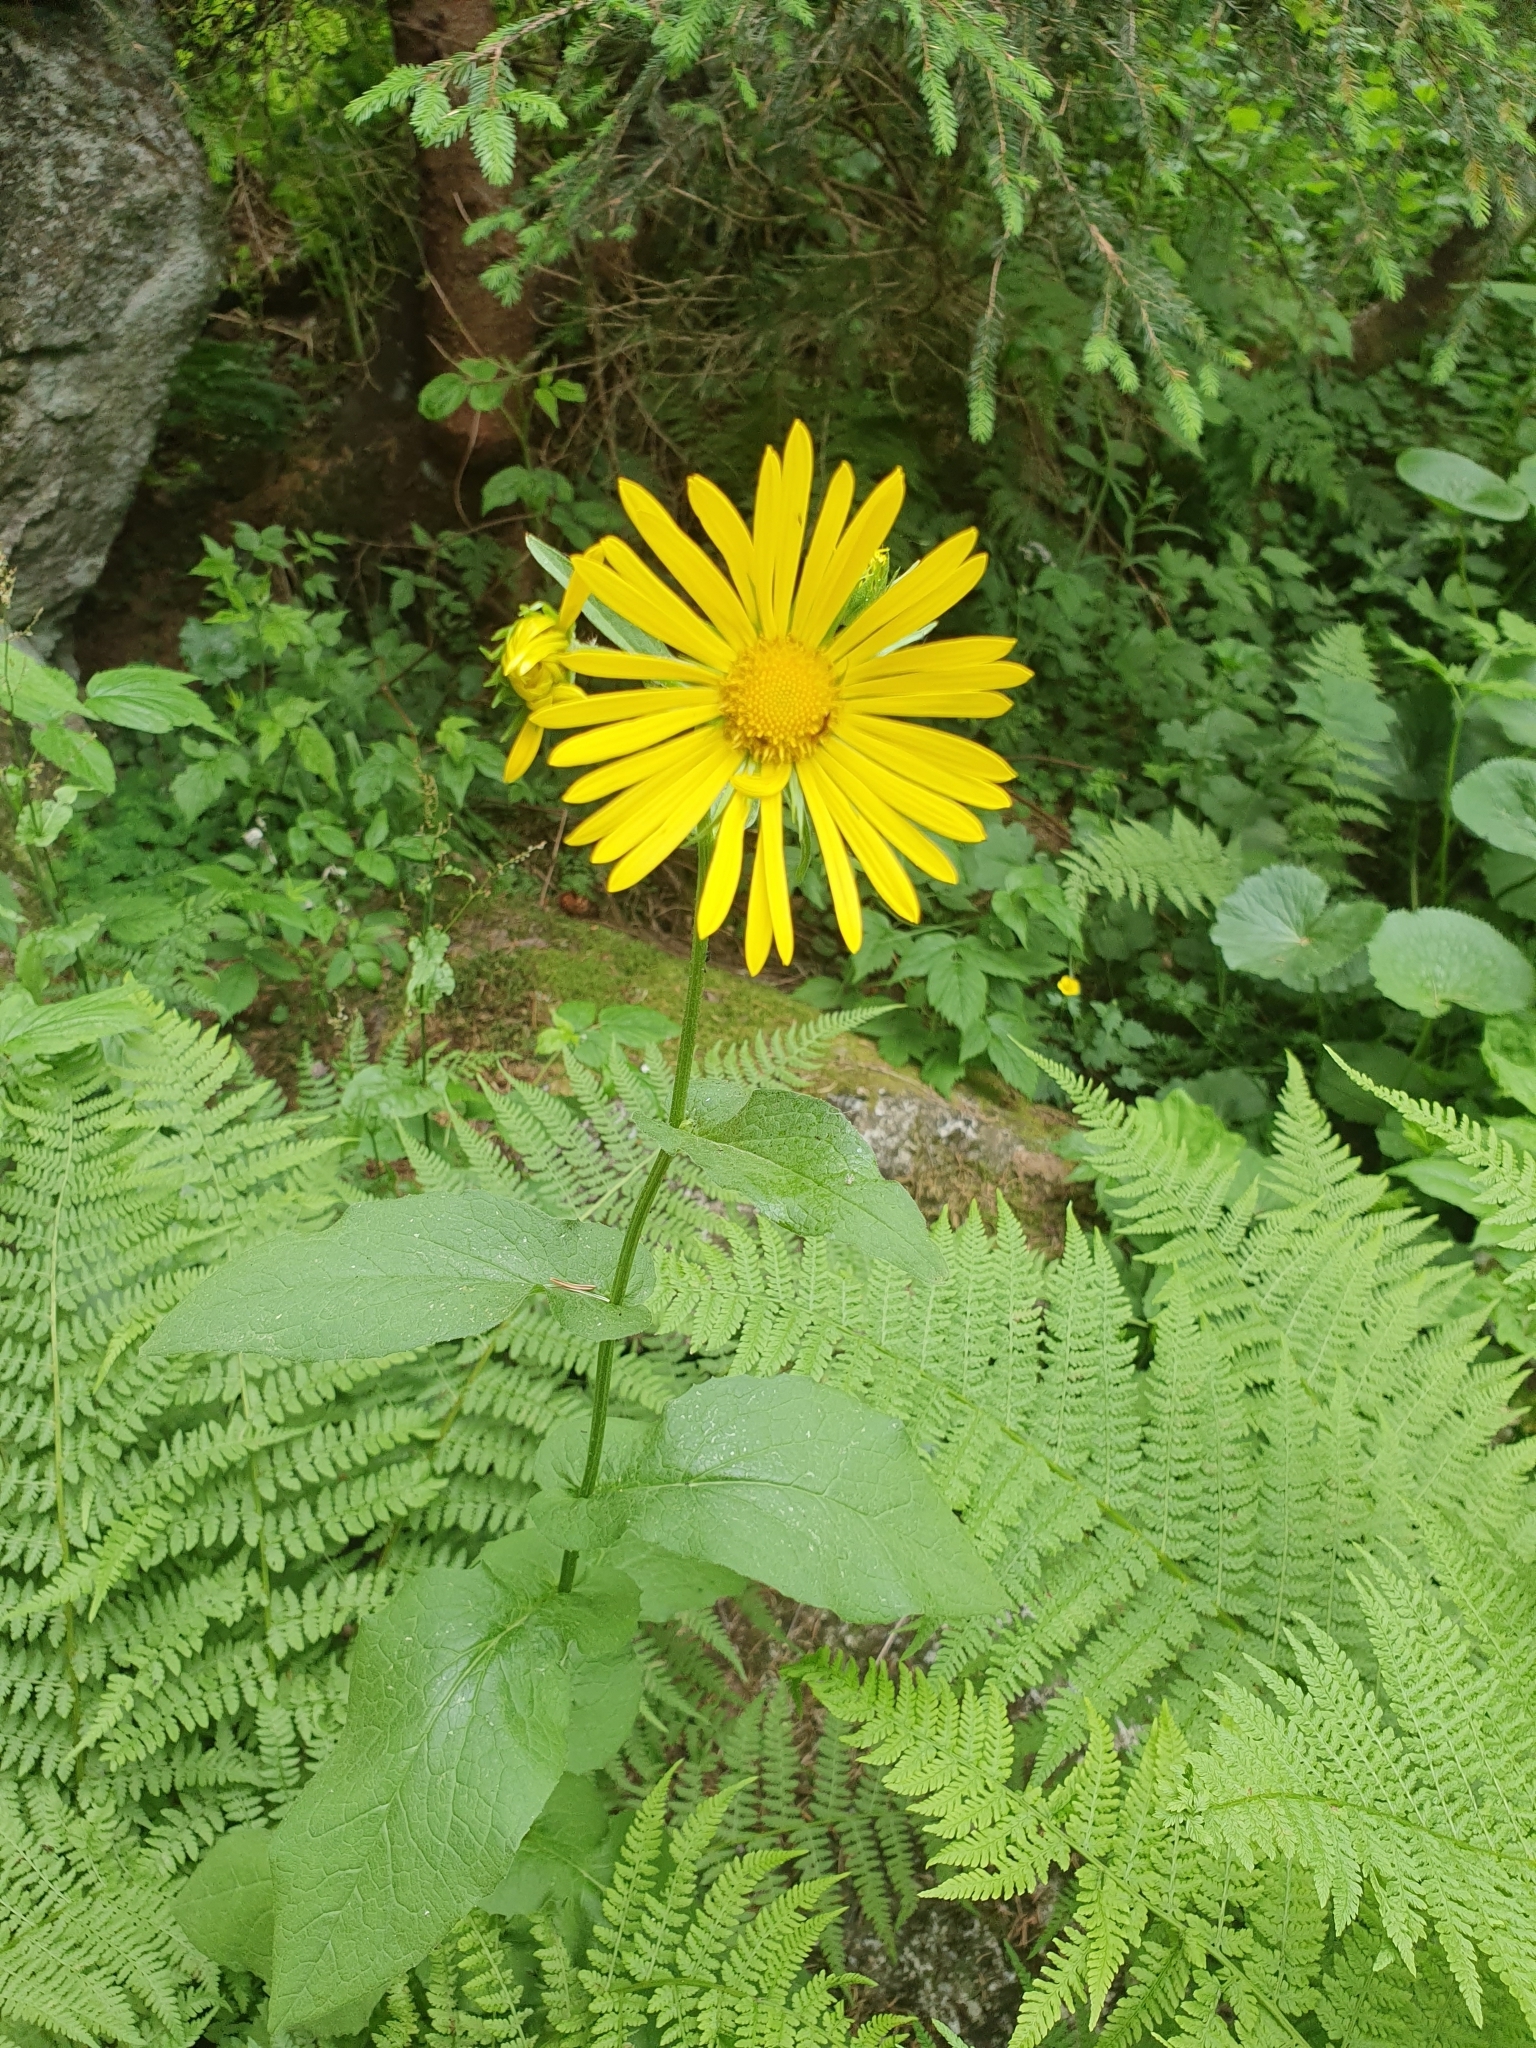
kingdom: Plantae
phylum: Tracheophyta
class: Magnoliopsida
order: Asterales
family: Asteraceae
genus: Doronicum
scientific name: Doronicum austriacum
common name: Austrian leopard's-bane
